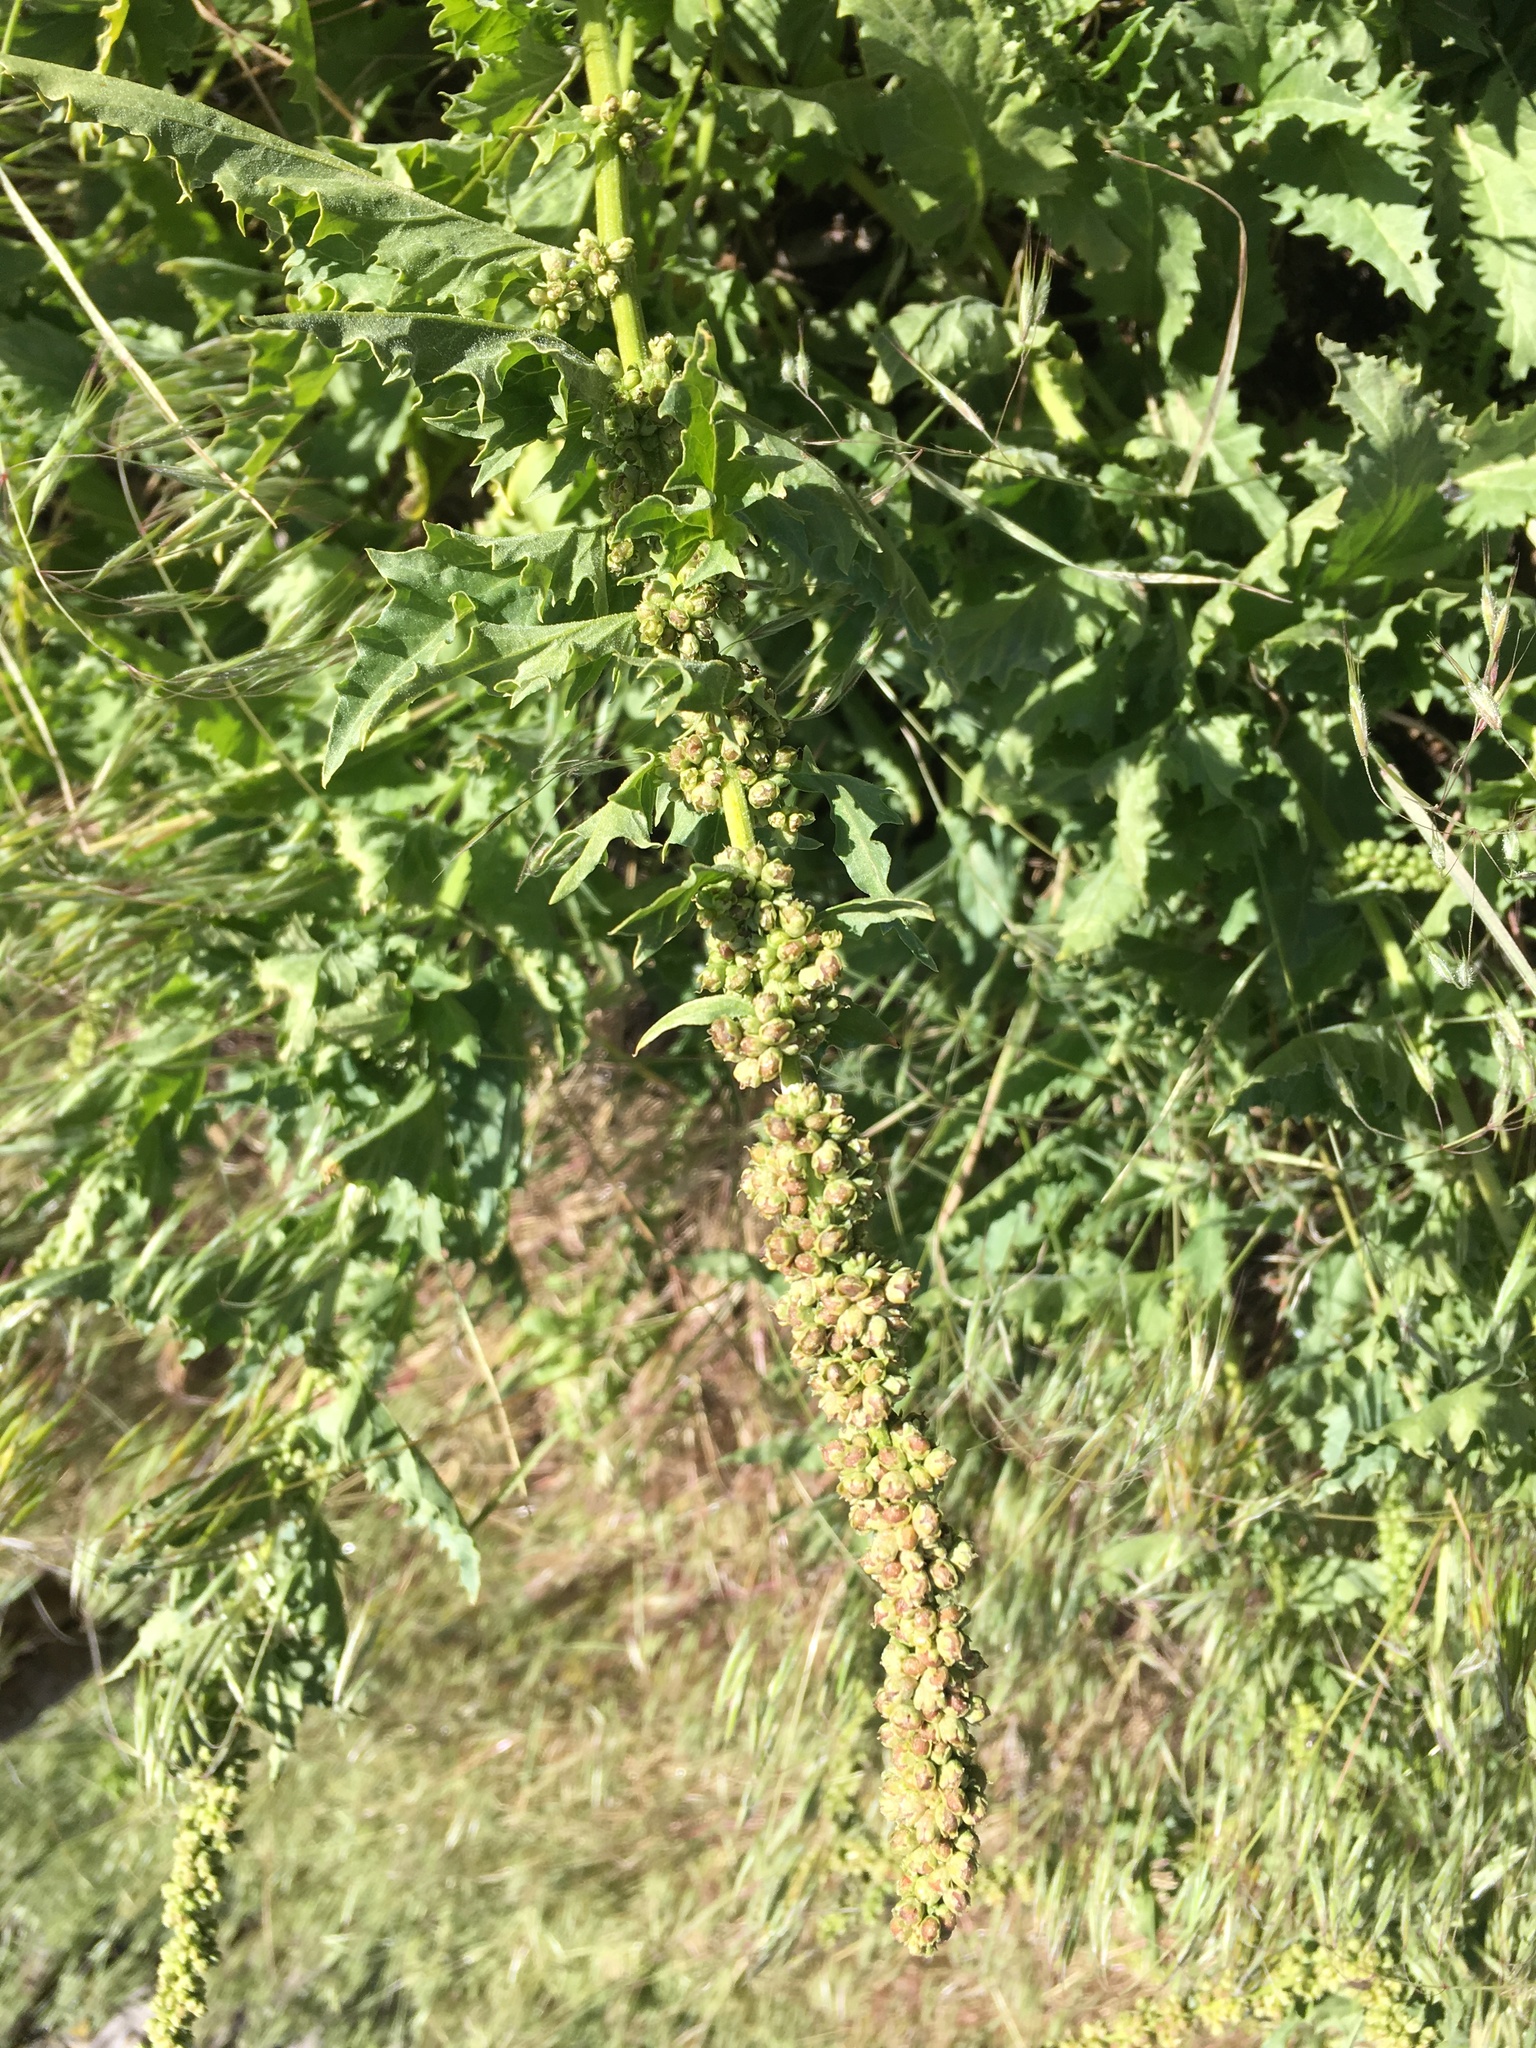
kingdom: Plantae
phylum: Tracheophyta
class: Magnoliopsida
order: Caryophyllales
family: Amaranthaceae
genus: Blitum
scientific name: Blitum californicum
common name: California goosefoot
